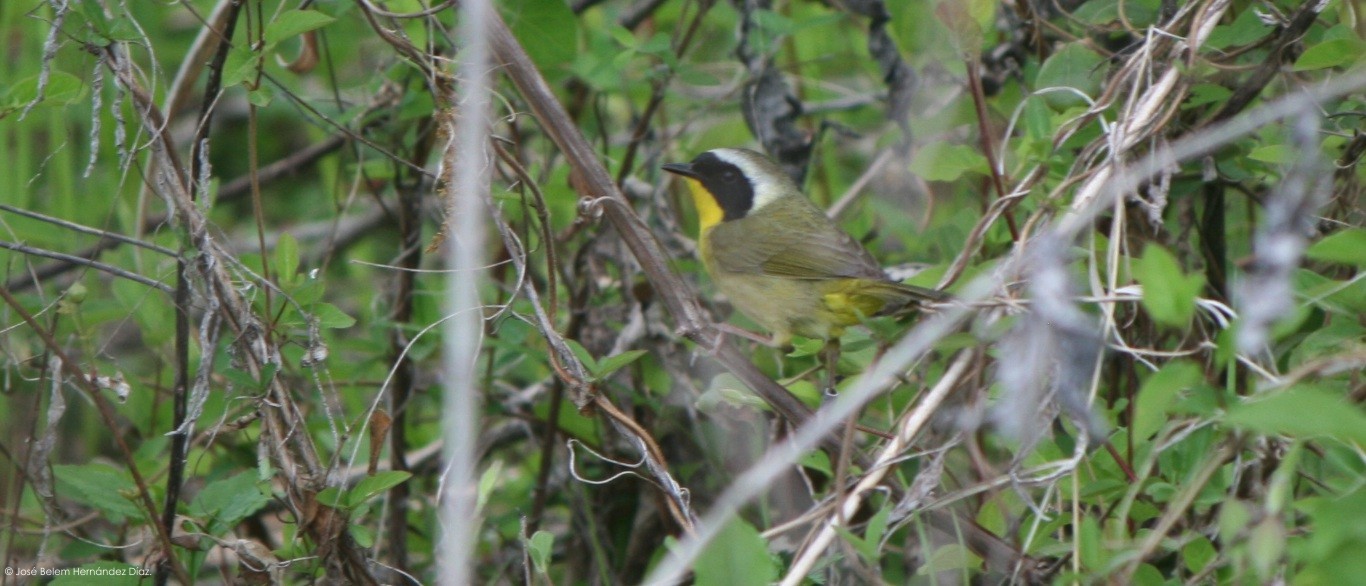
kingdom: Animalia
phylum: Chordata
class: Aves
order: Passeriformes
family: Parulidae
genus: Geothlypis
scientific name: Geothlypis trichas
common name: Common yellowthroat
